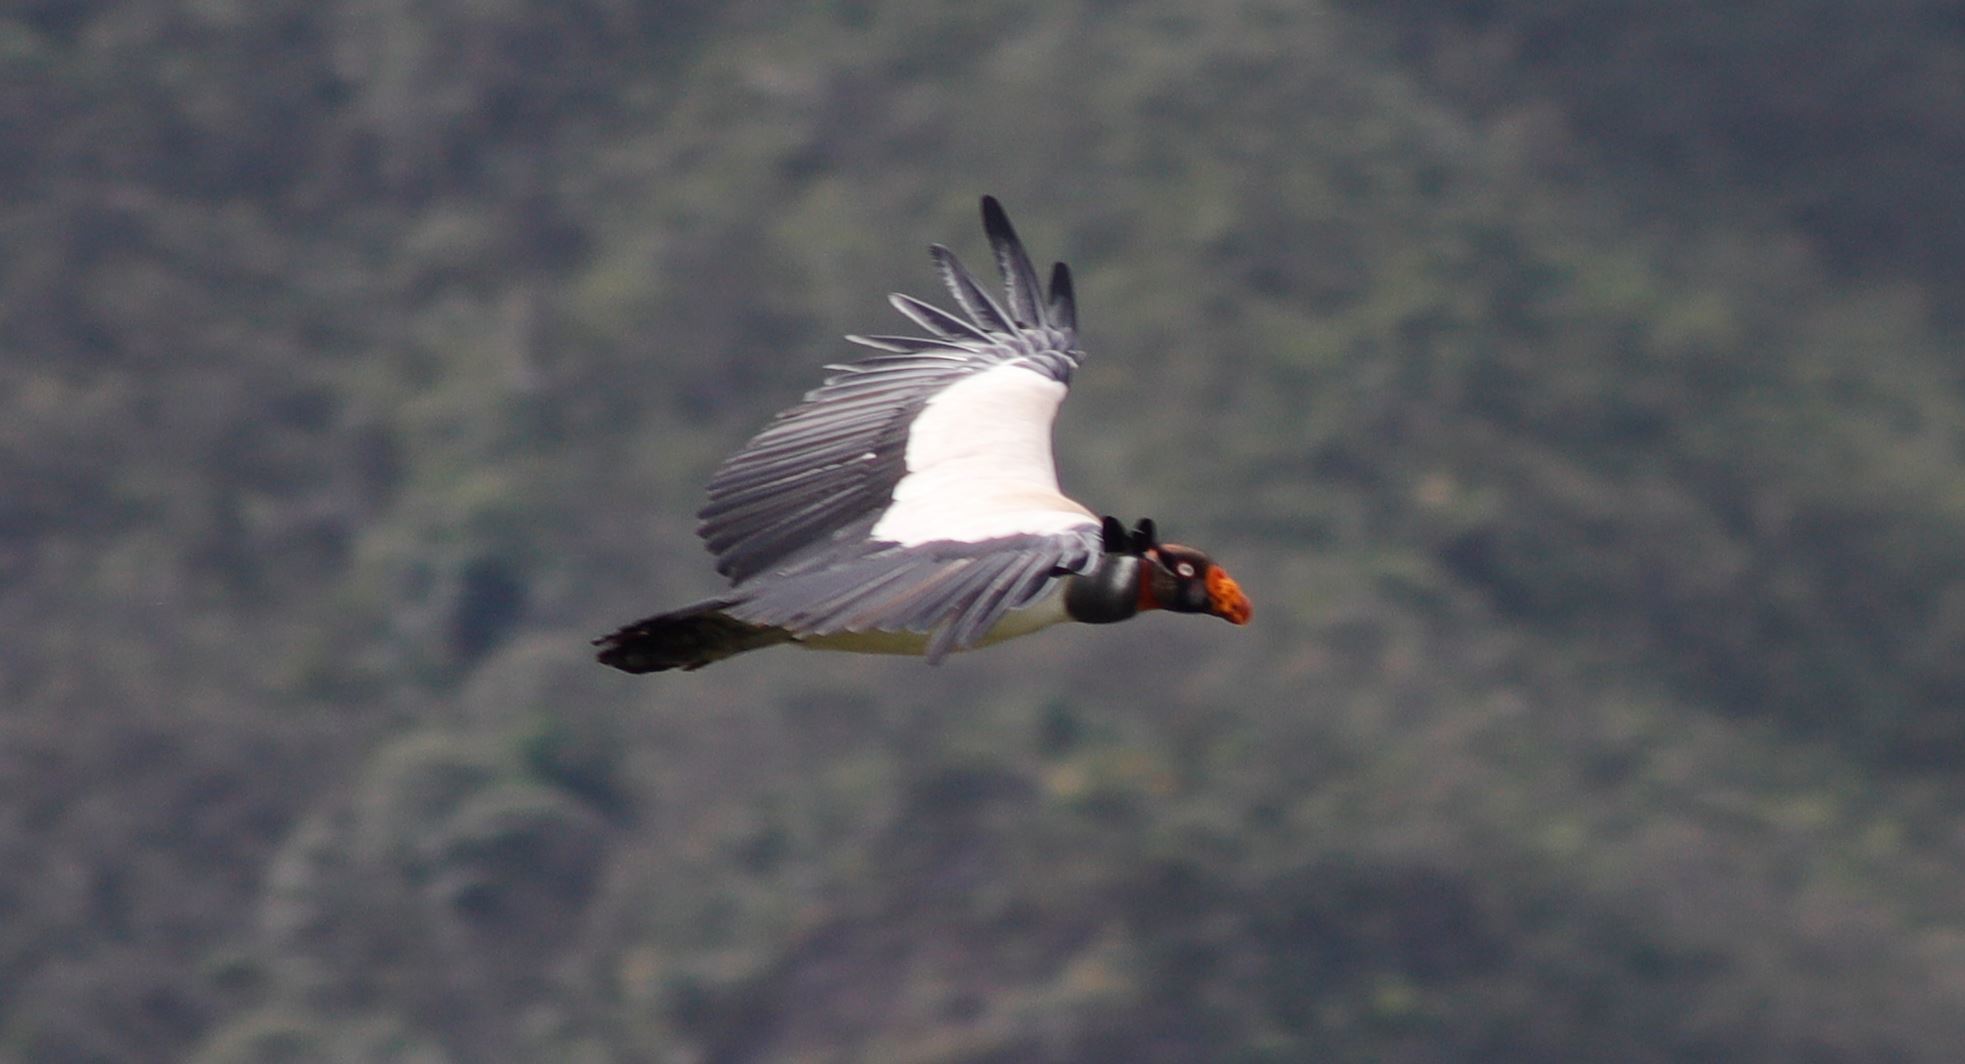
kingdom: Animalia
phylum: Chordata
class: Aves
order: Accipitriformes
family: Cathartidae
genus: Sarcoramphus
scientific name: Sarcoramphus papa
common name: King vulture
